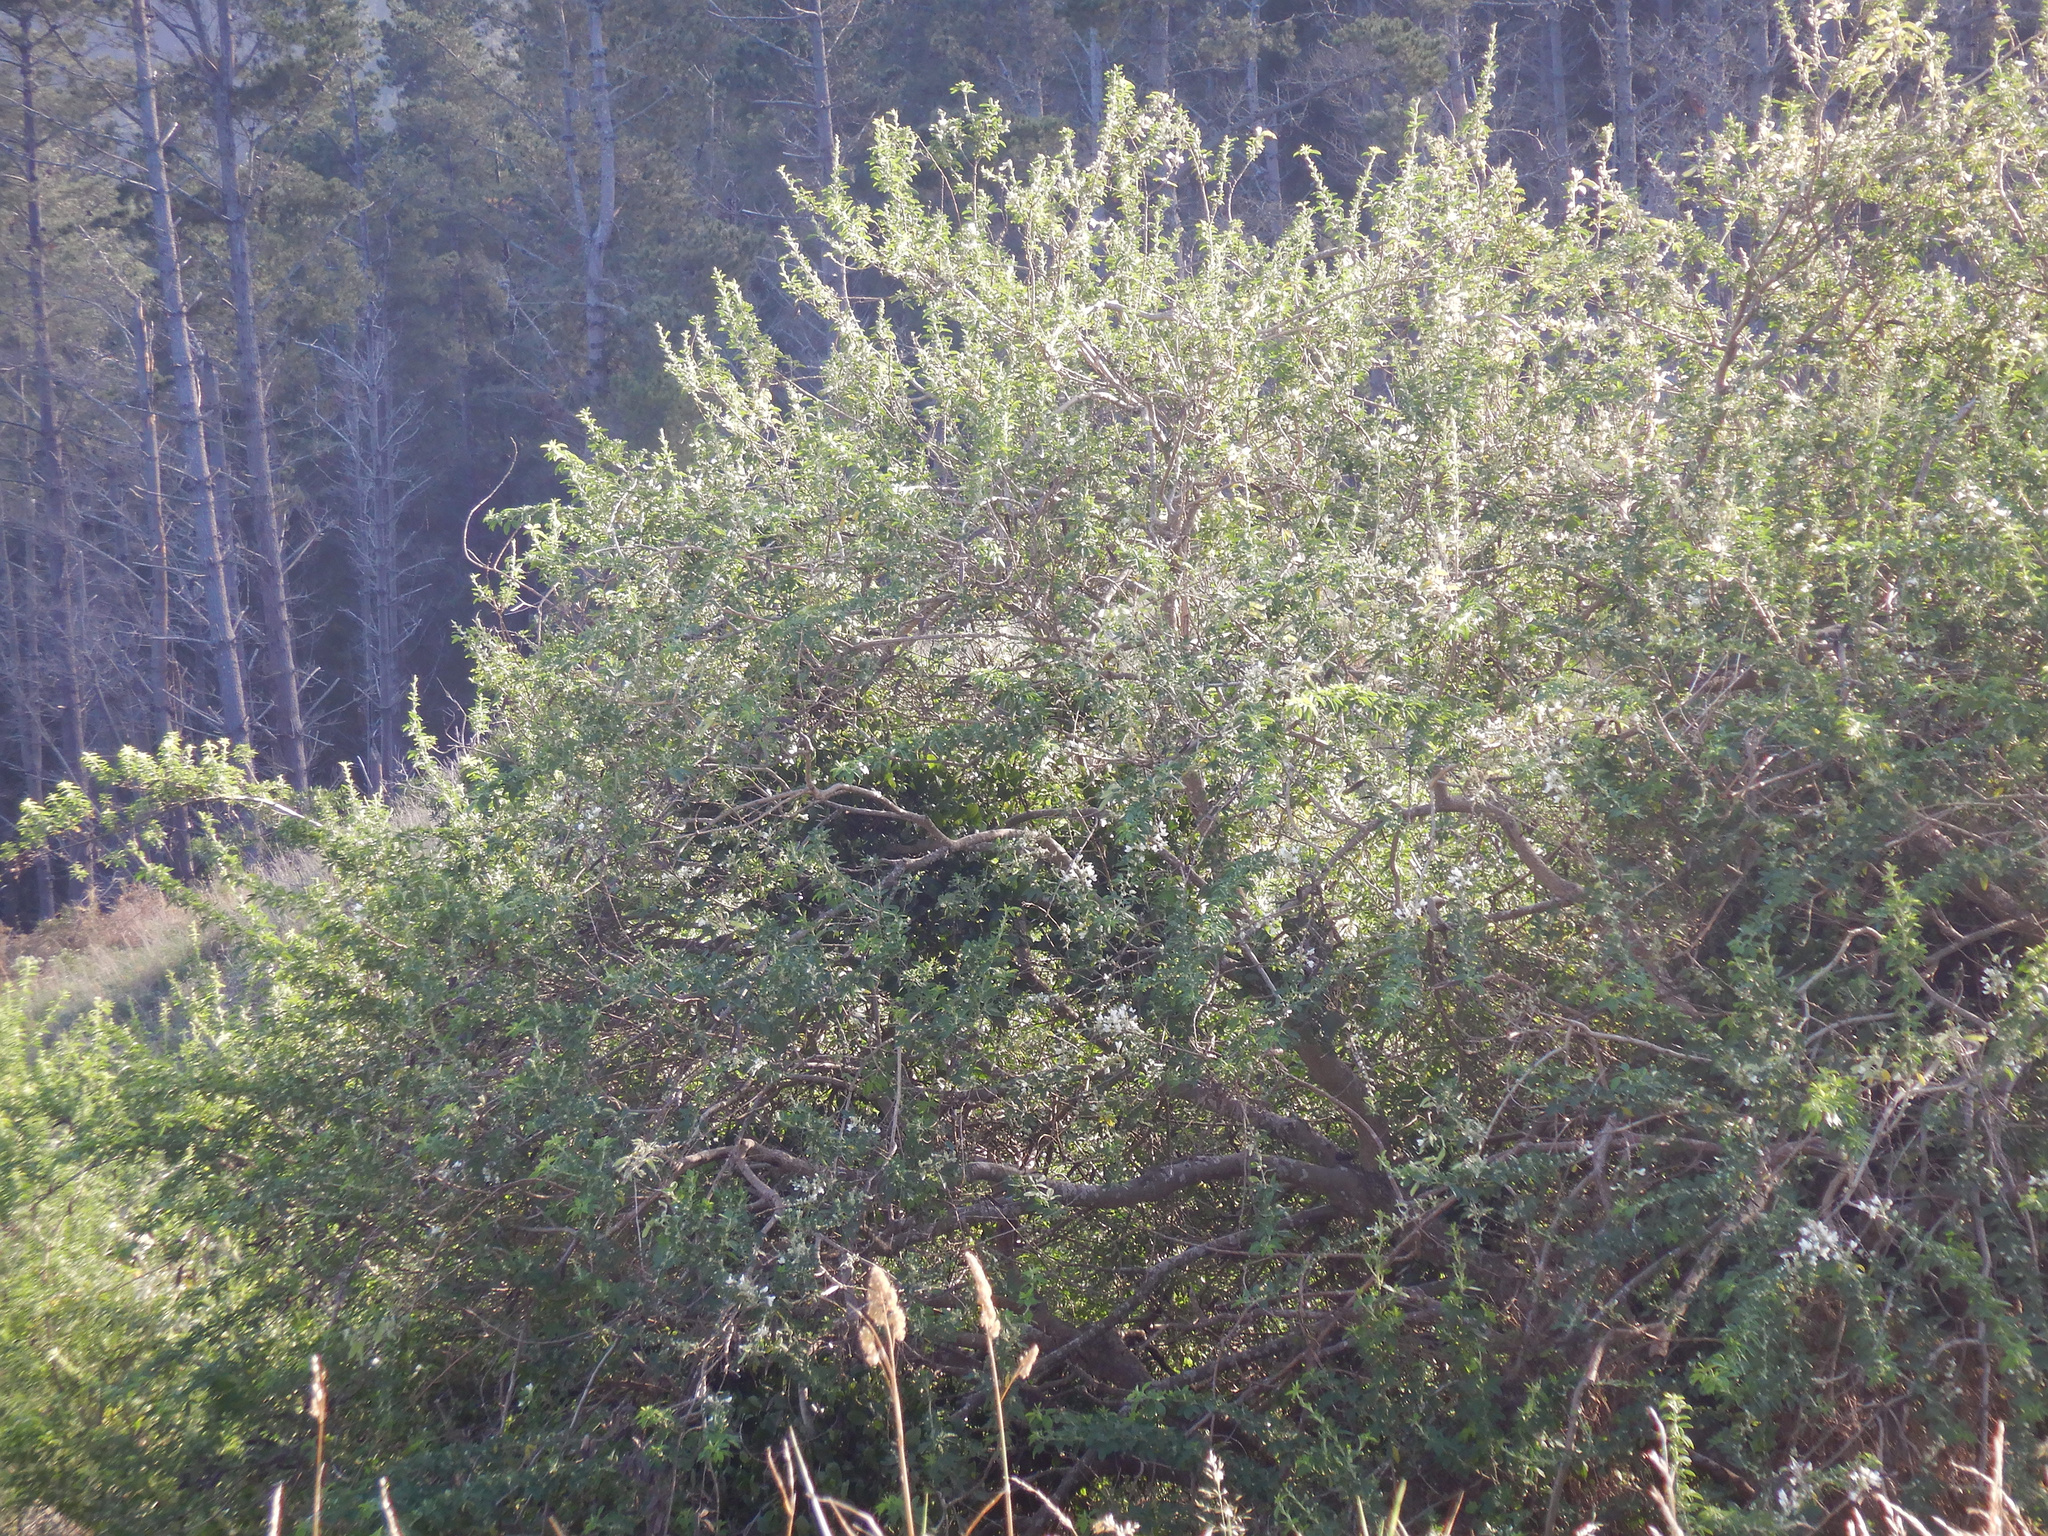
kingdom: Plantae
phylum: Tracheophyta
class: Magnoliopsida
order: Santalales
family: Loranthaceae
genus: Ileostylus
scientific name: Ileostylus micranthus
